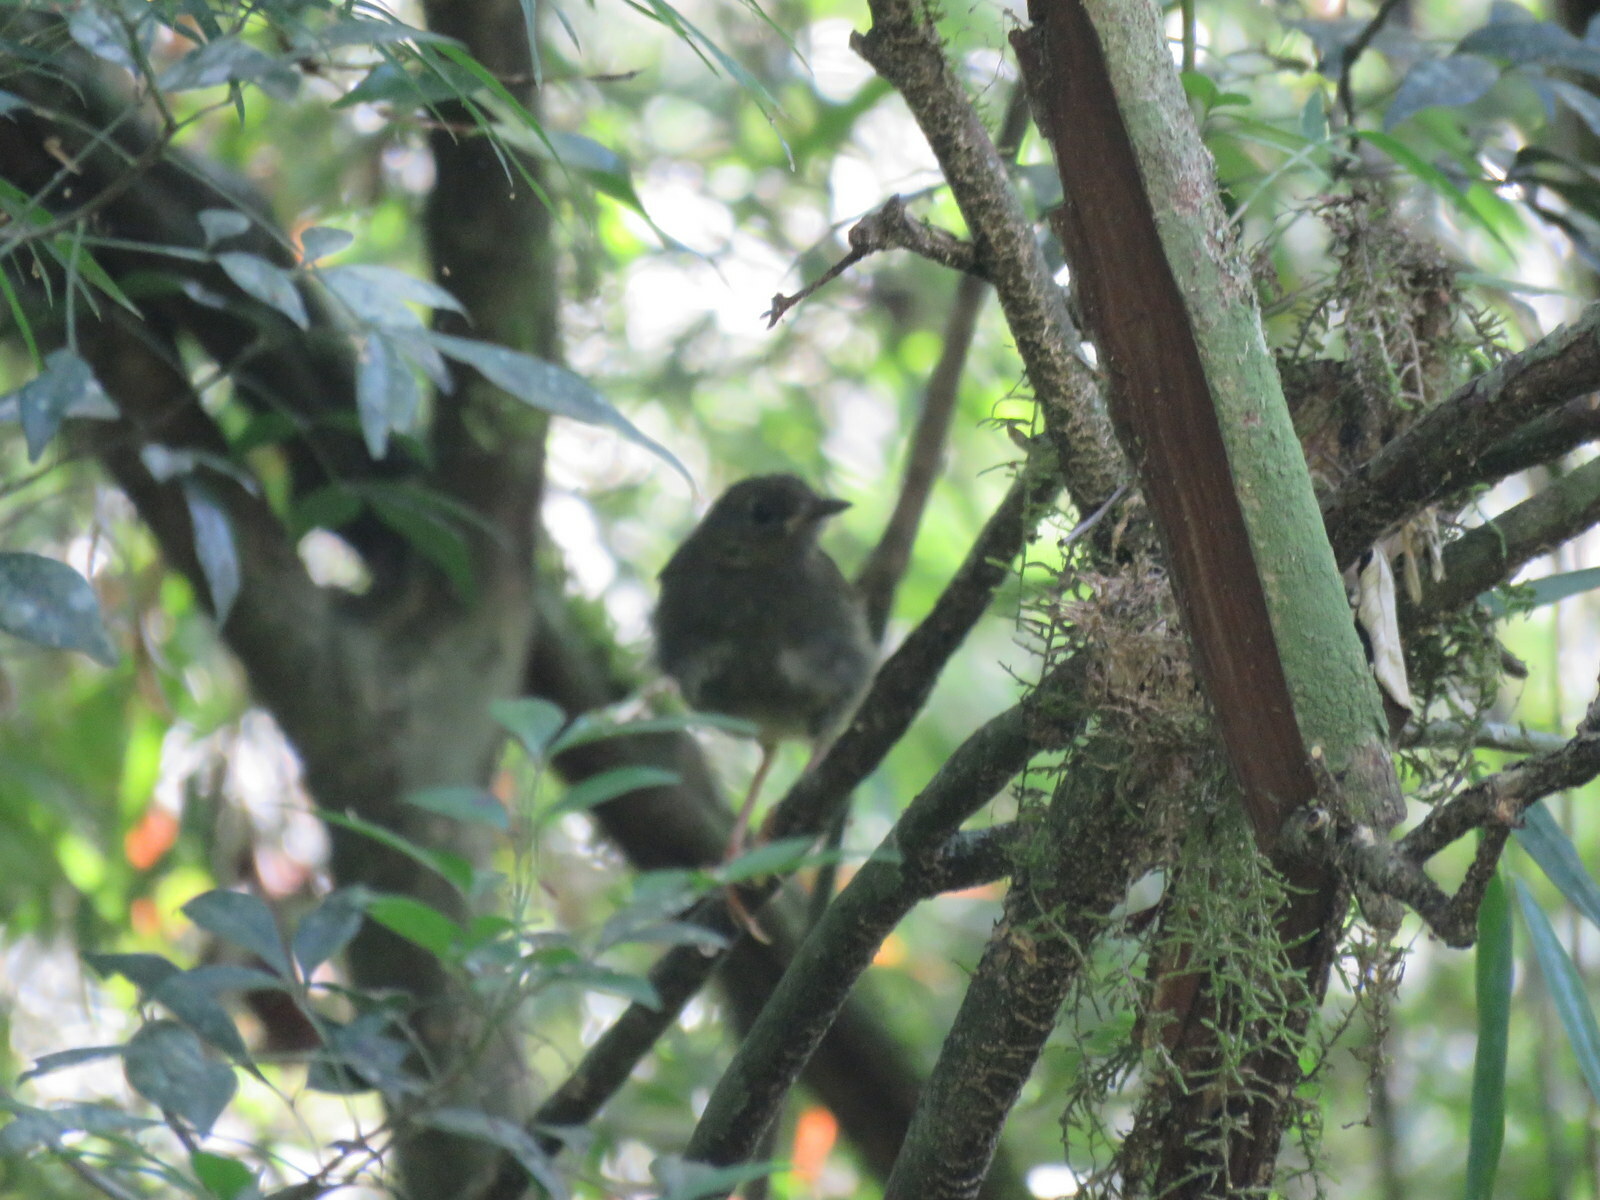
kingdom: Animalia
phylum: Chordata
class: Aves
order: Passeriformes
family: Parulidae
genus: Myiothlypis
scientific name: Myiothlypis leucoblephara
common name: White-rimmed warbler
